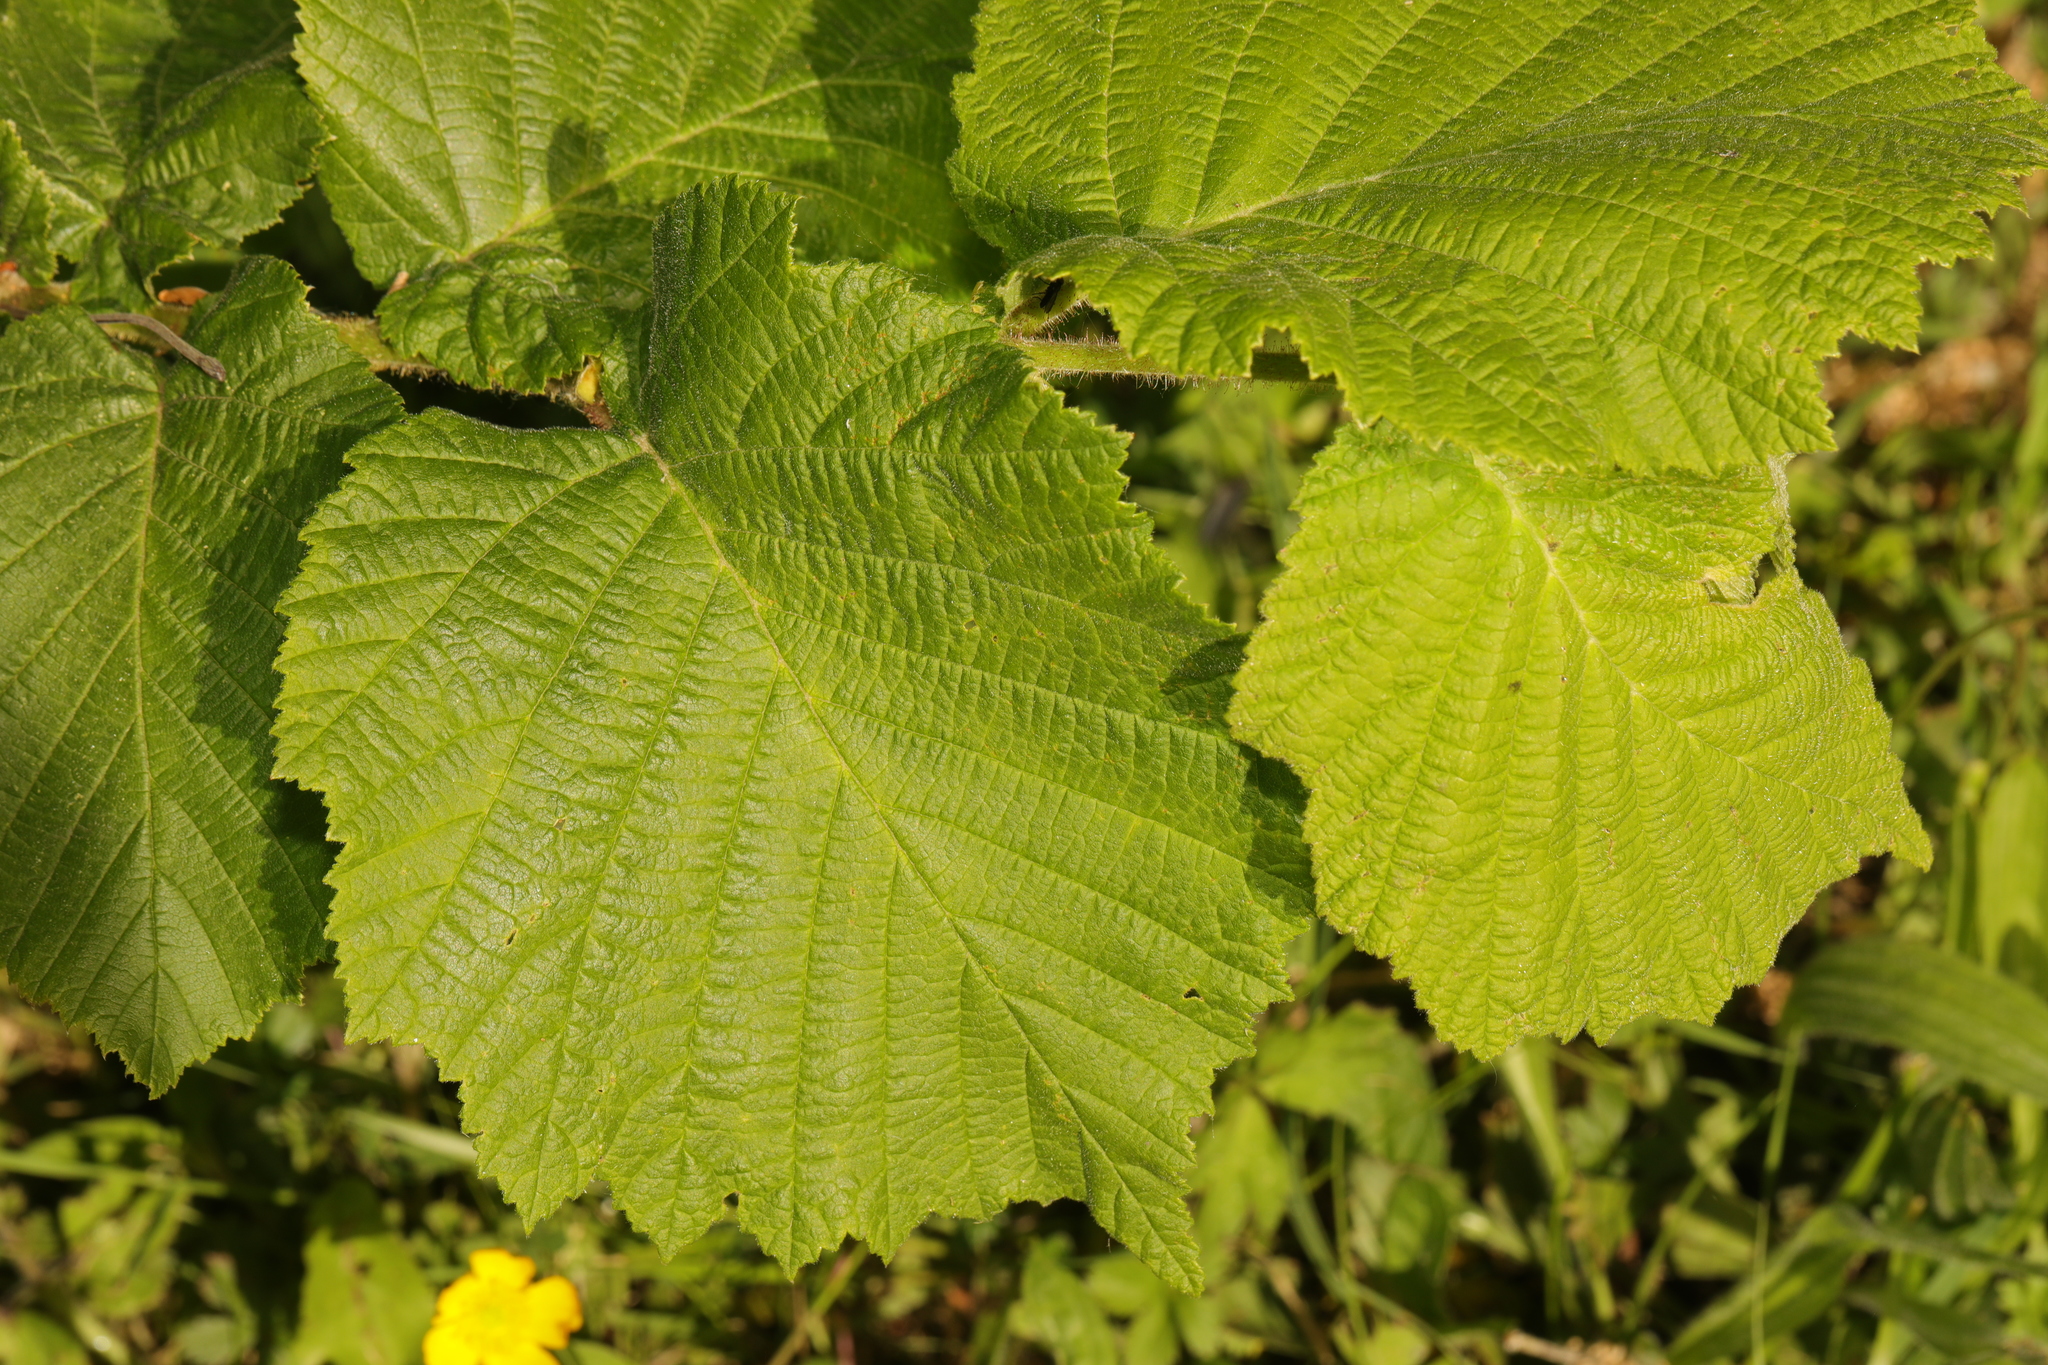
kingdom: Plantae
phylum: Tracheophyta
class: Magnoliopsida
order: Fagales
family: Betulaceae
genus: Corylus
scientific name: Corylus avellana
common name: European hazel
